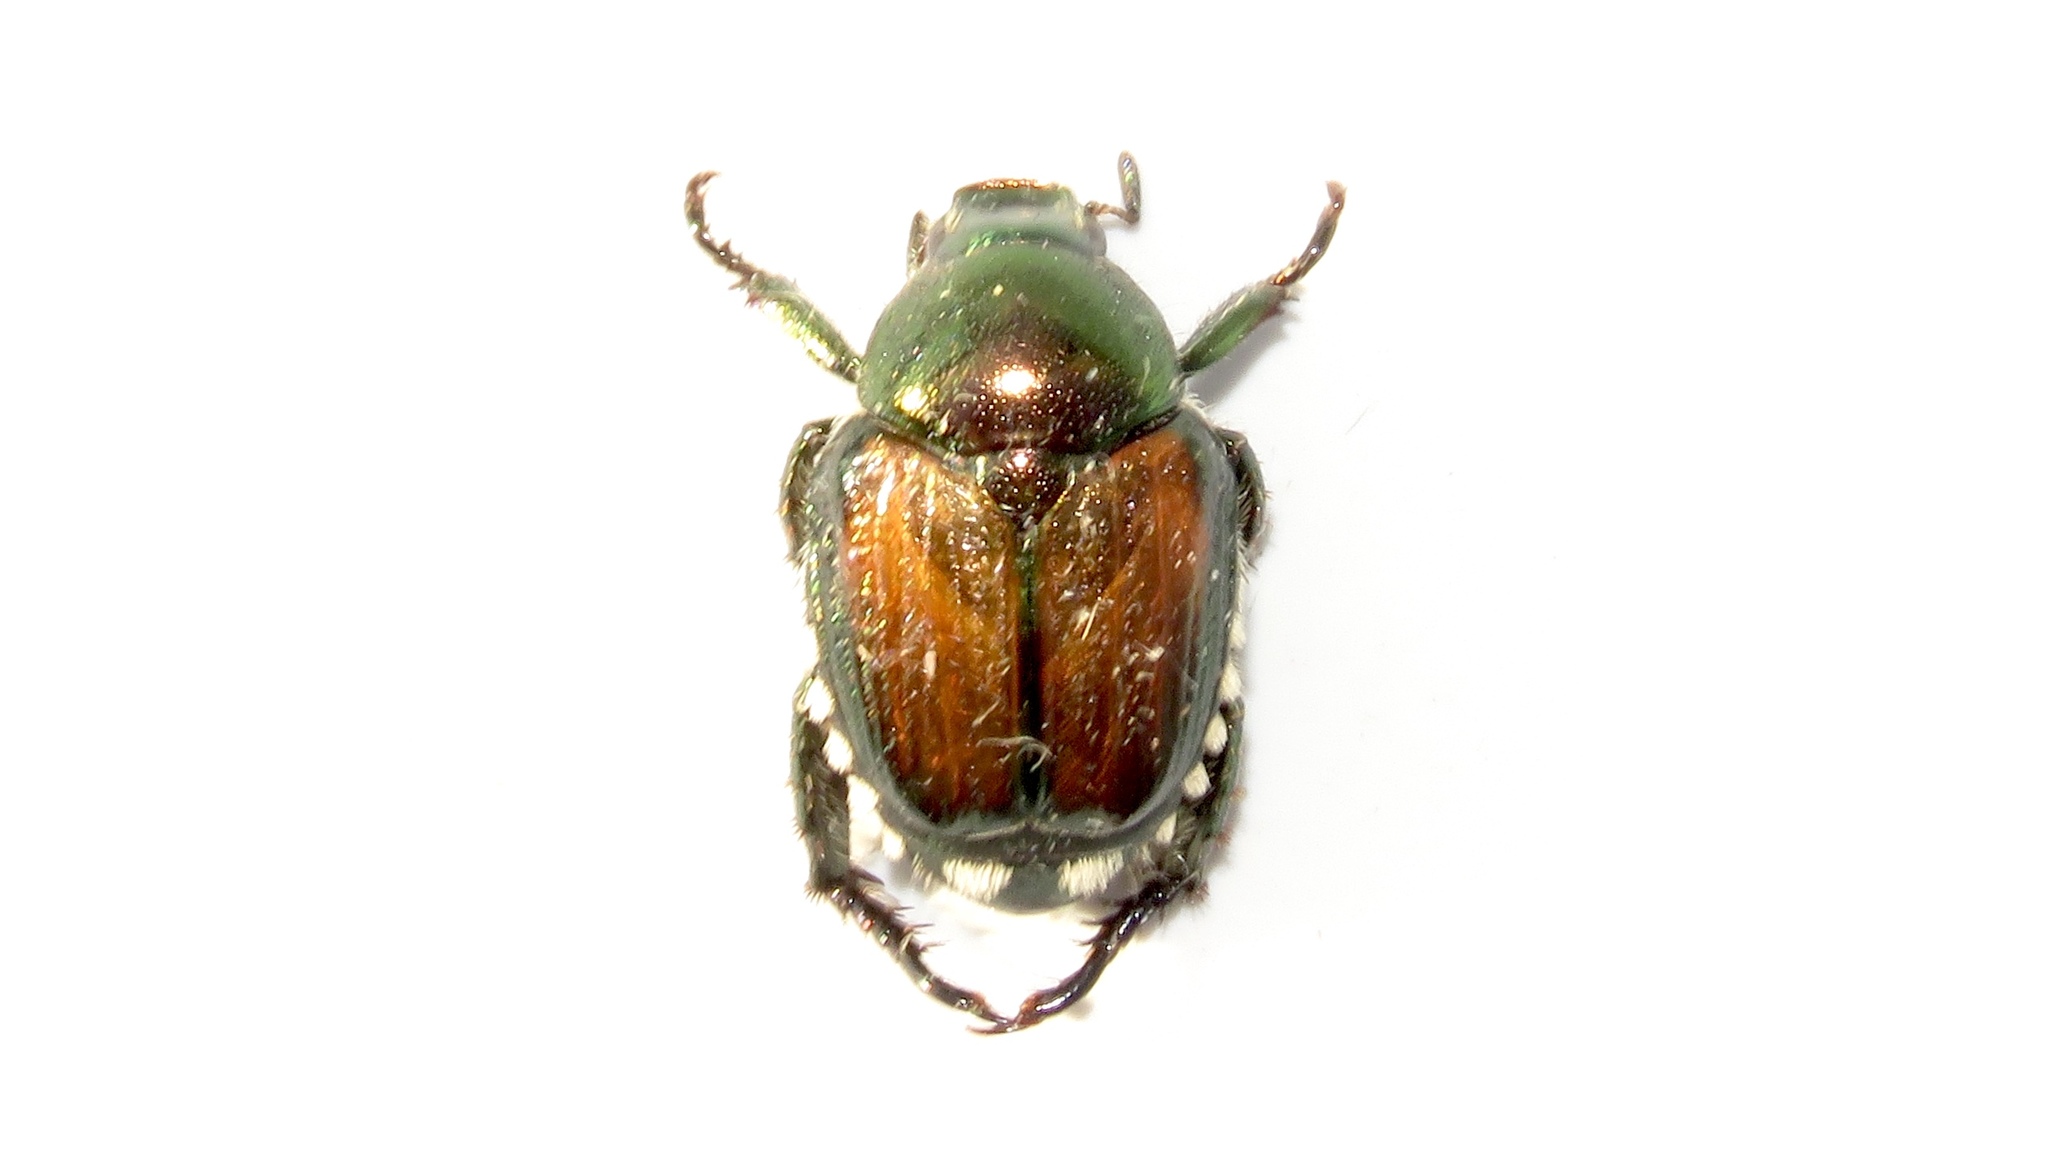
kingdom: Animalia
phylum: Arthropoda
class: Insecta
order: Coleoptera
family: Scarabaeidae
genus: Popillia
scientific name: Popillia japonica
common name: Japanese beetle
